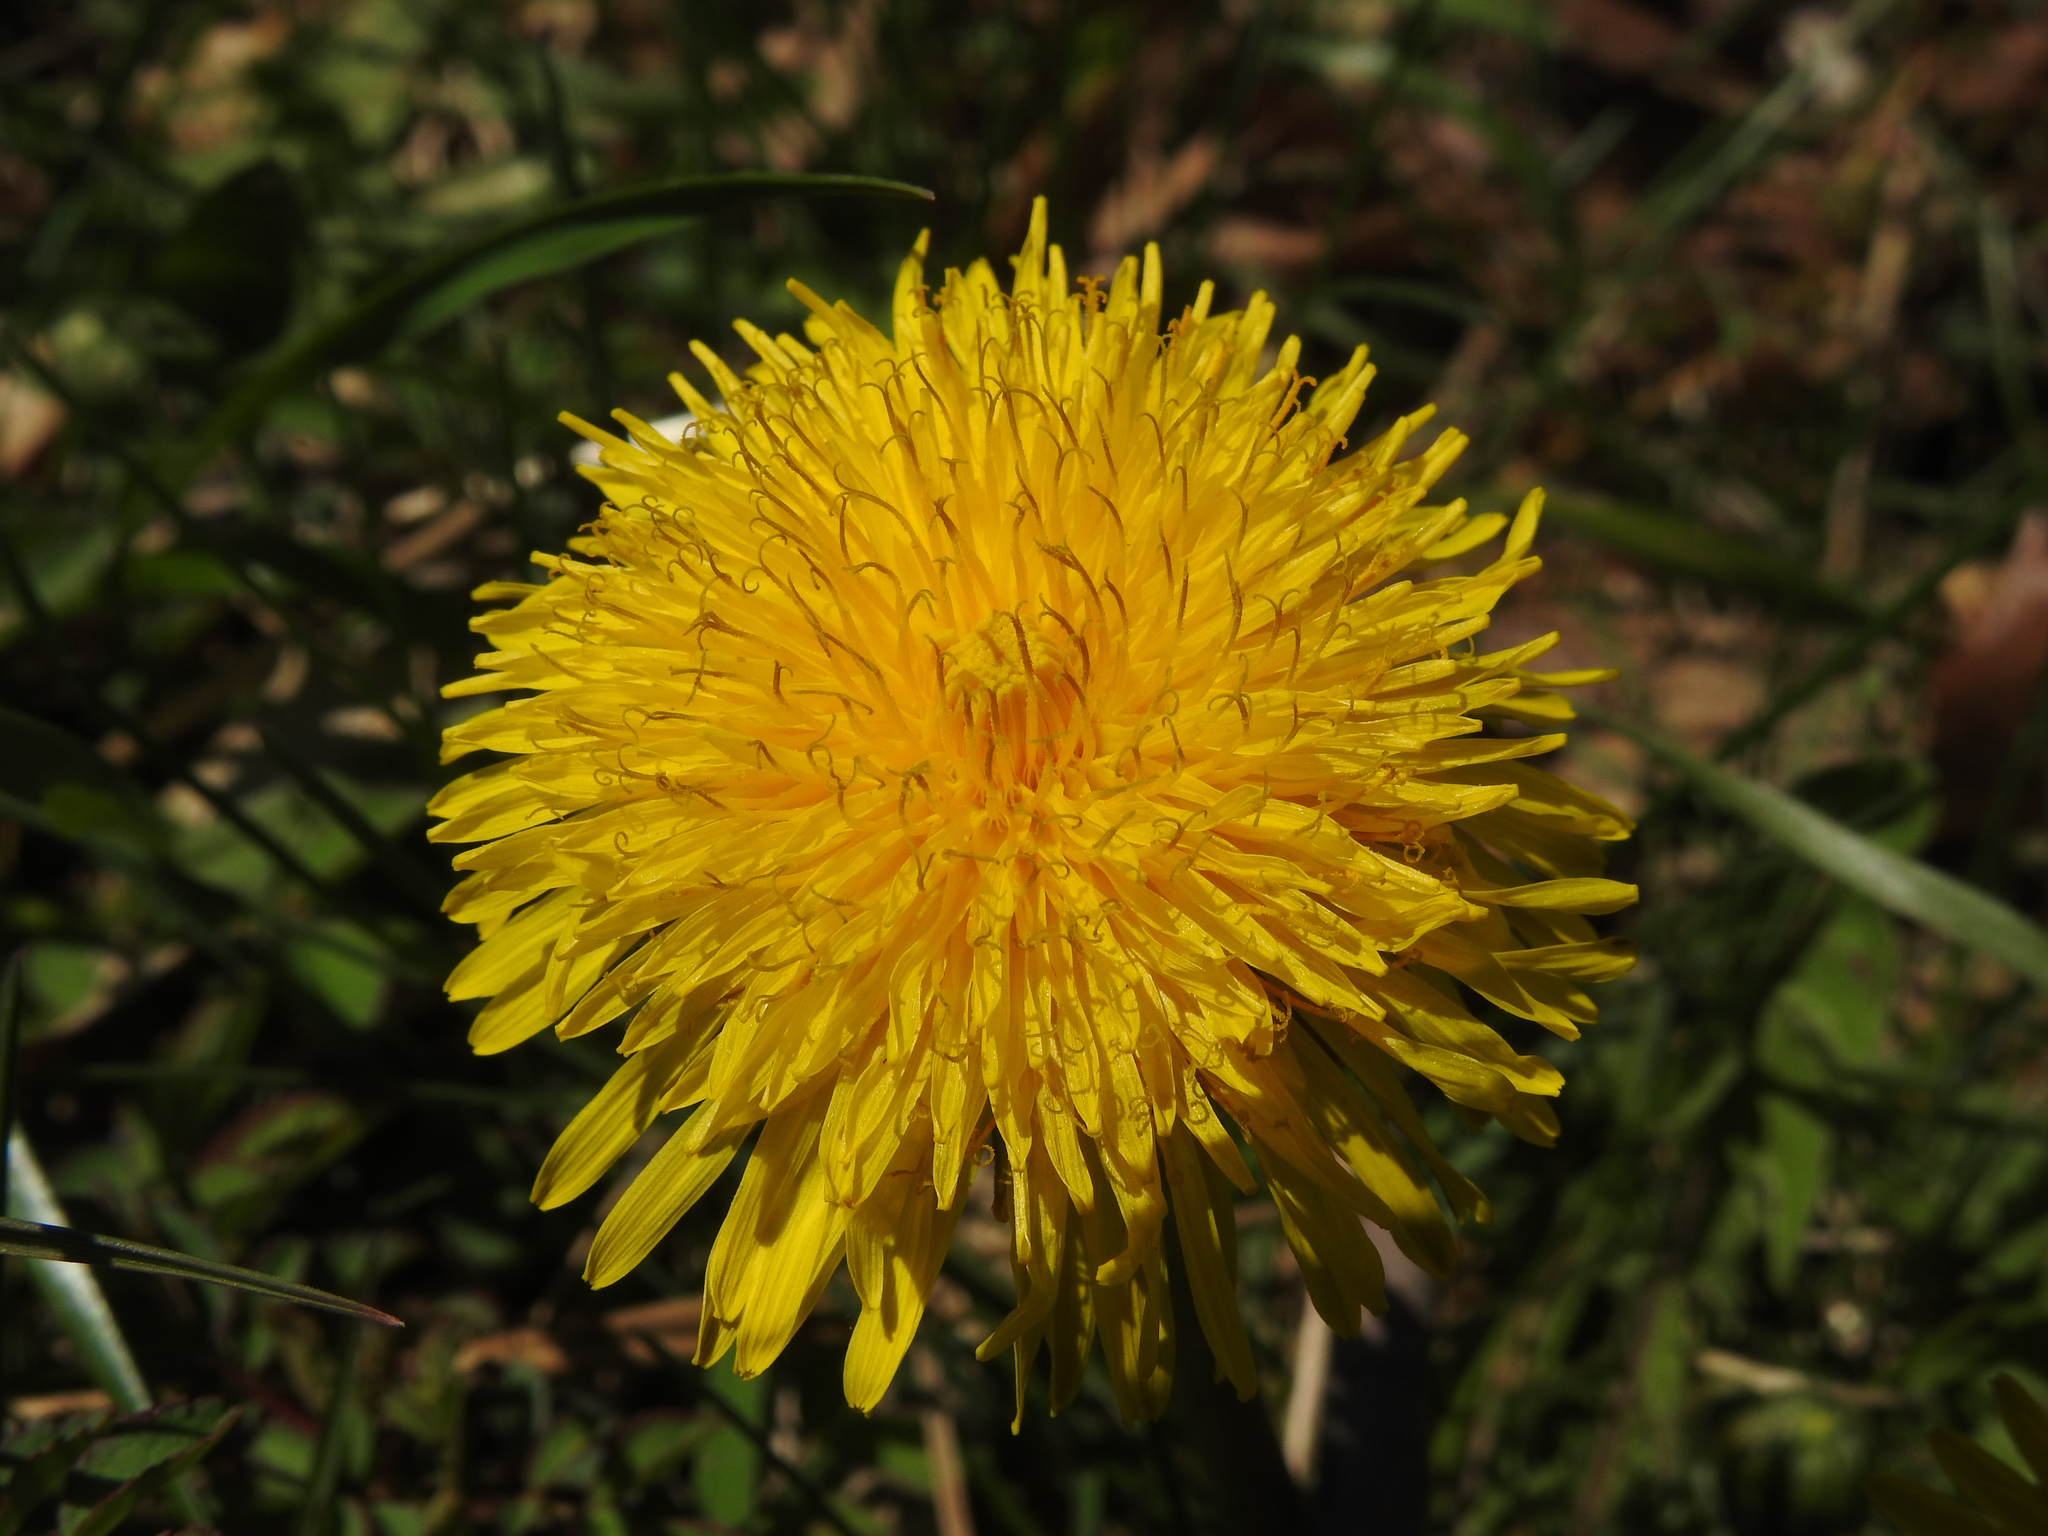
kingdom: Plantae
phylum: Tracheophyta
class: Magnoliopsida
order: Asterales
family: Asteraceae
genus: Taraxacum
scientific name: Taraxacum officinale
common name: Common dandelion
